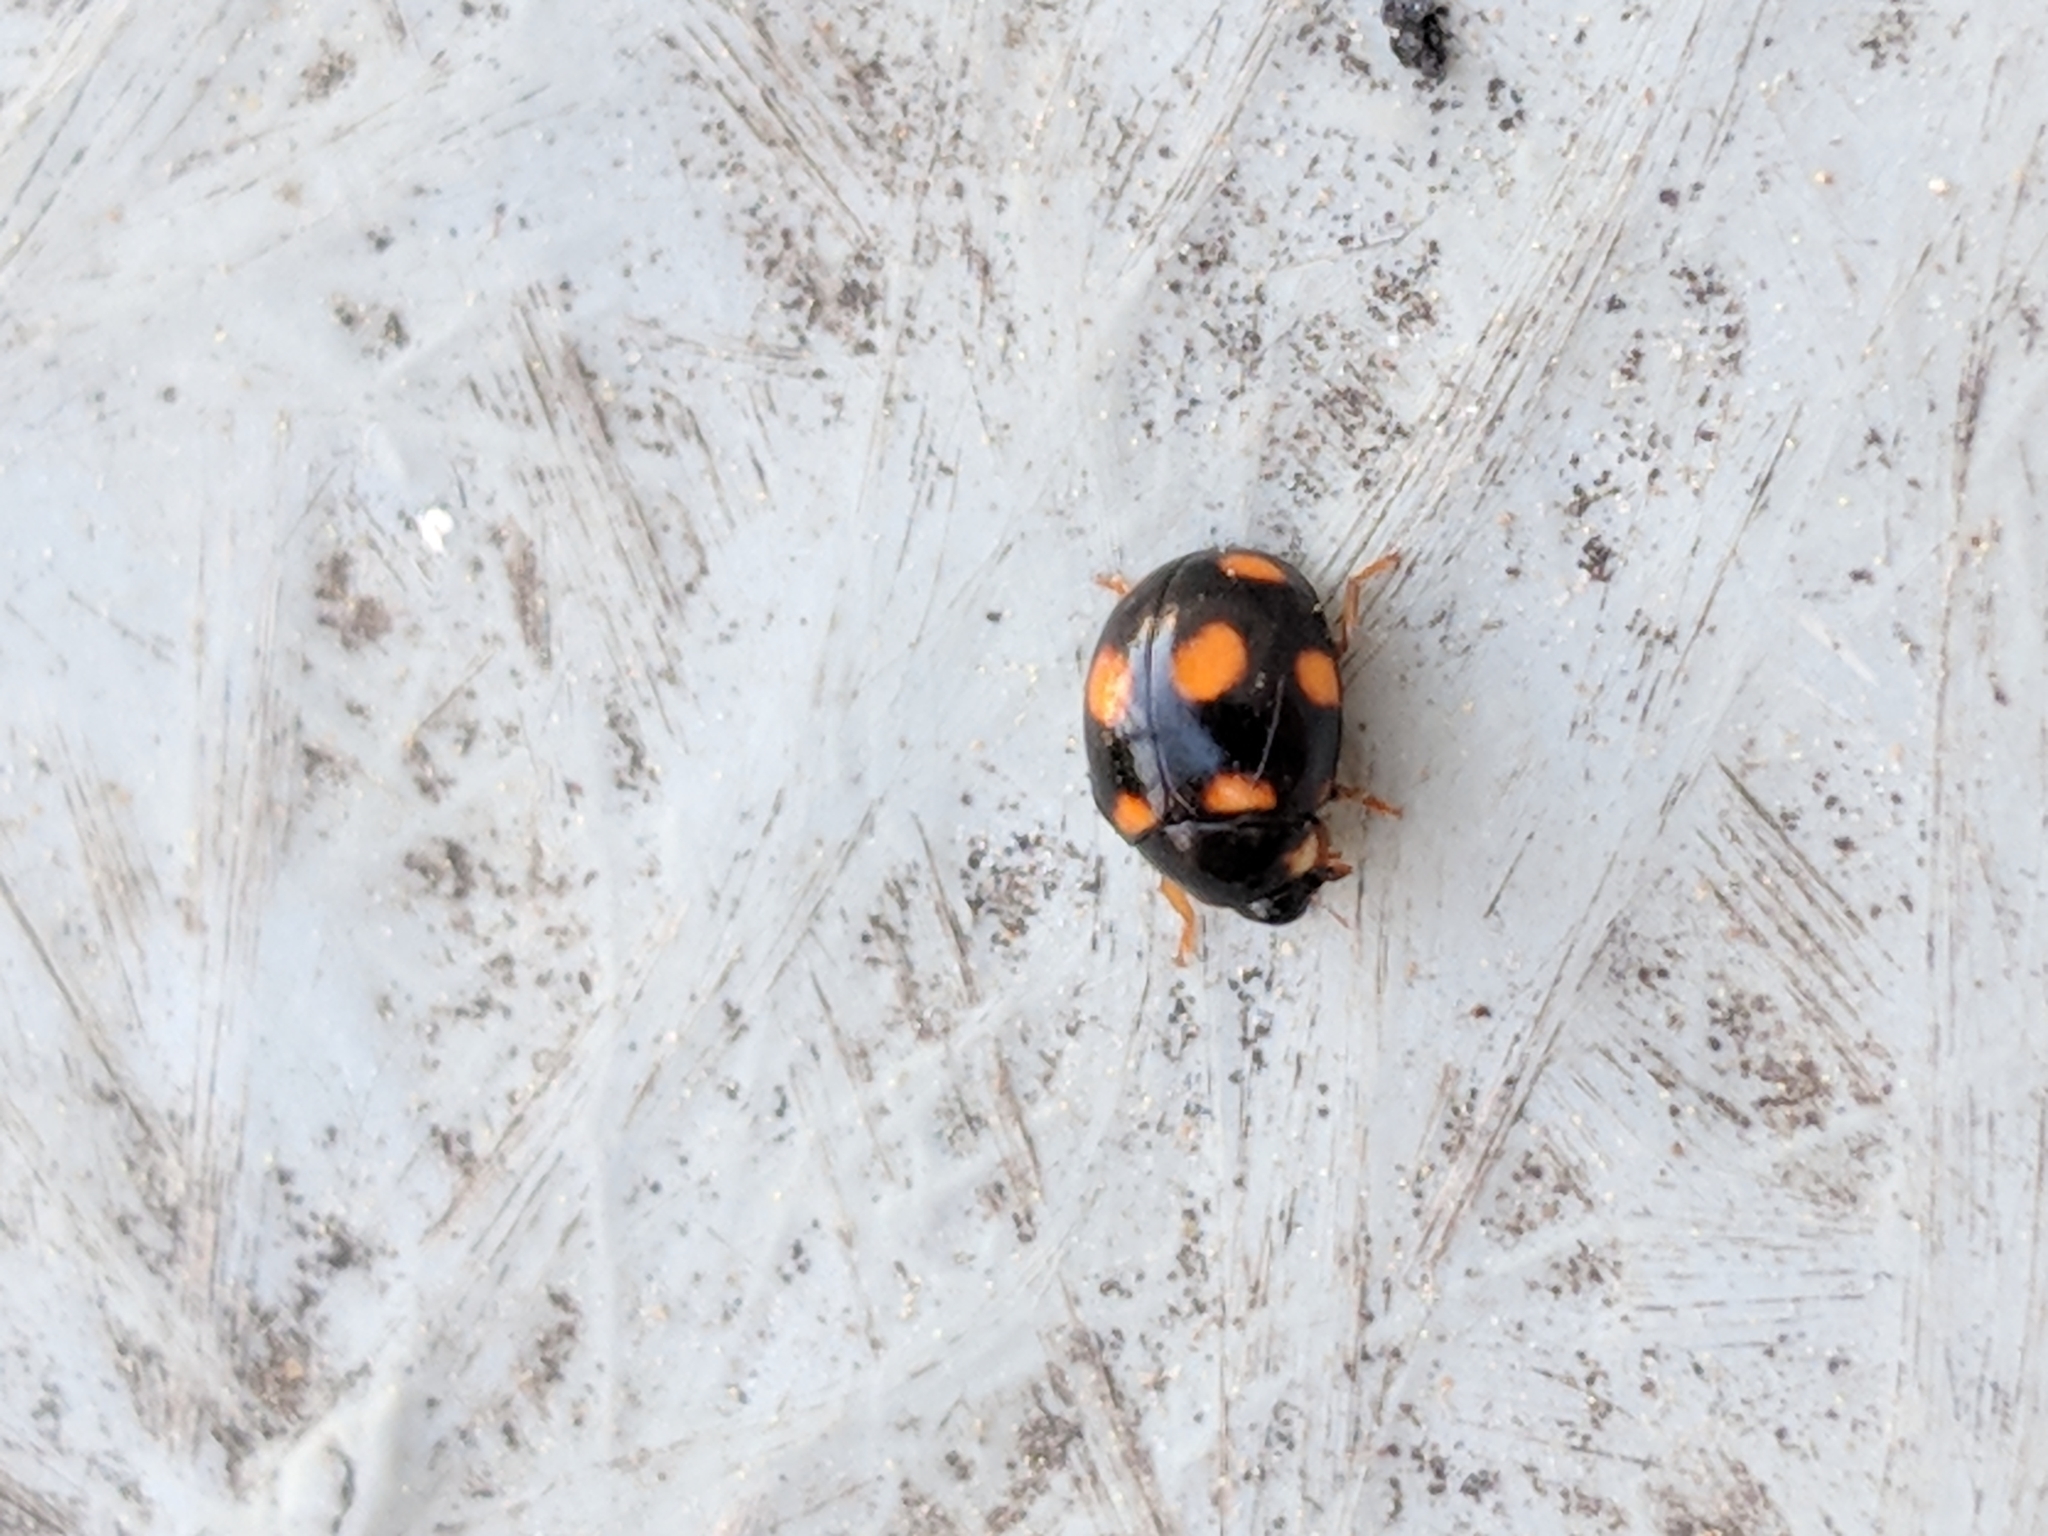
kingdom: Animalia
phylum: Arthropoda
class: Insecta
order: Coleoptera
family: Coccinellidae
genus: Brachiacantha
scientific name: Brachiacantha ursina
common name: Ursine spurleg lady beetle
